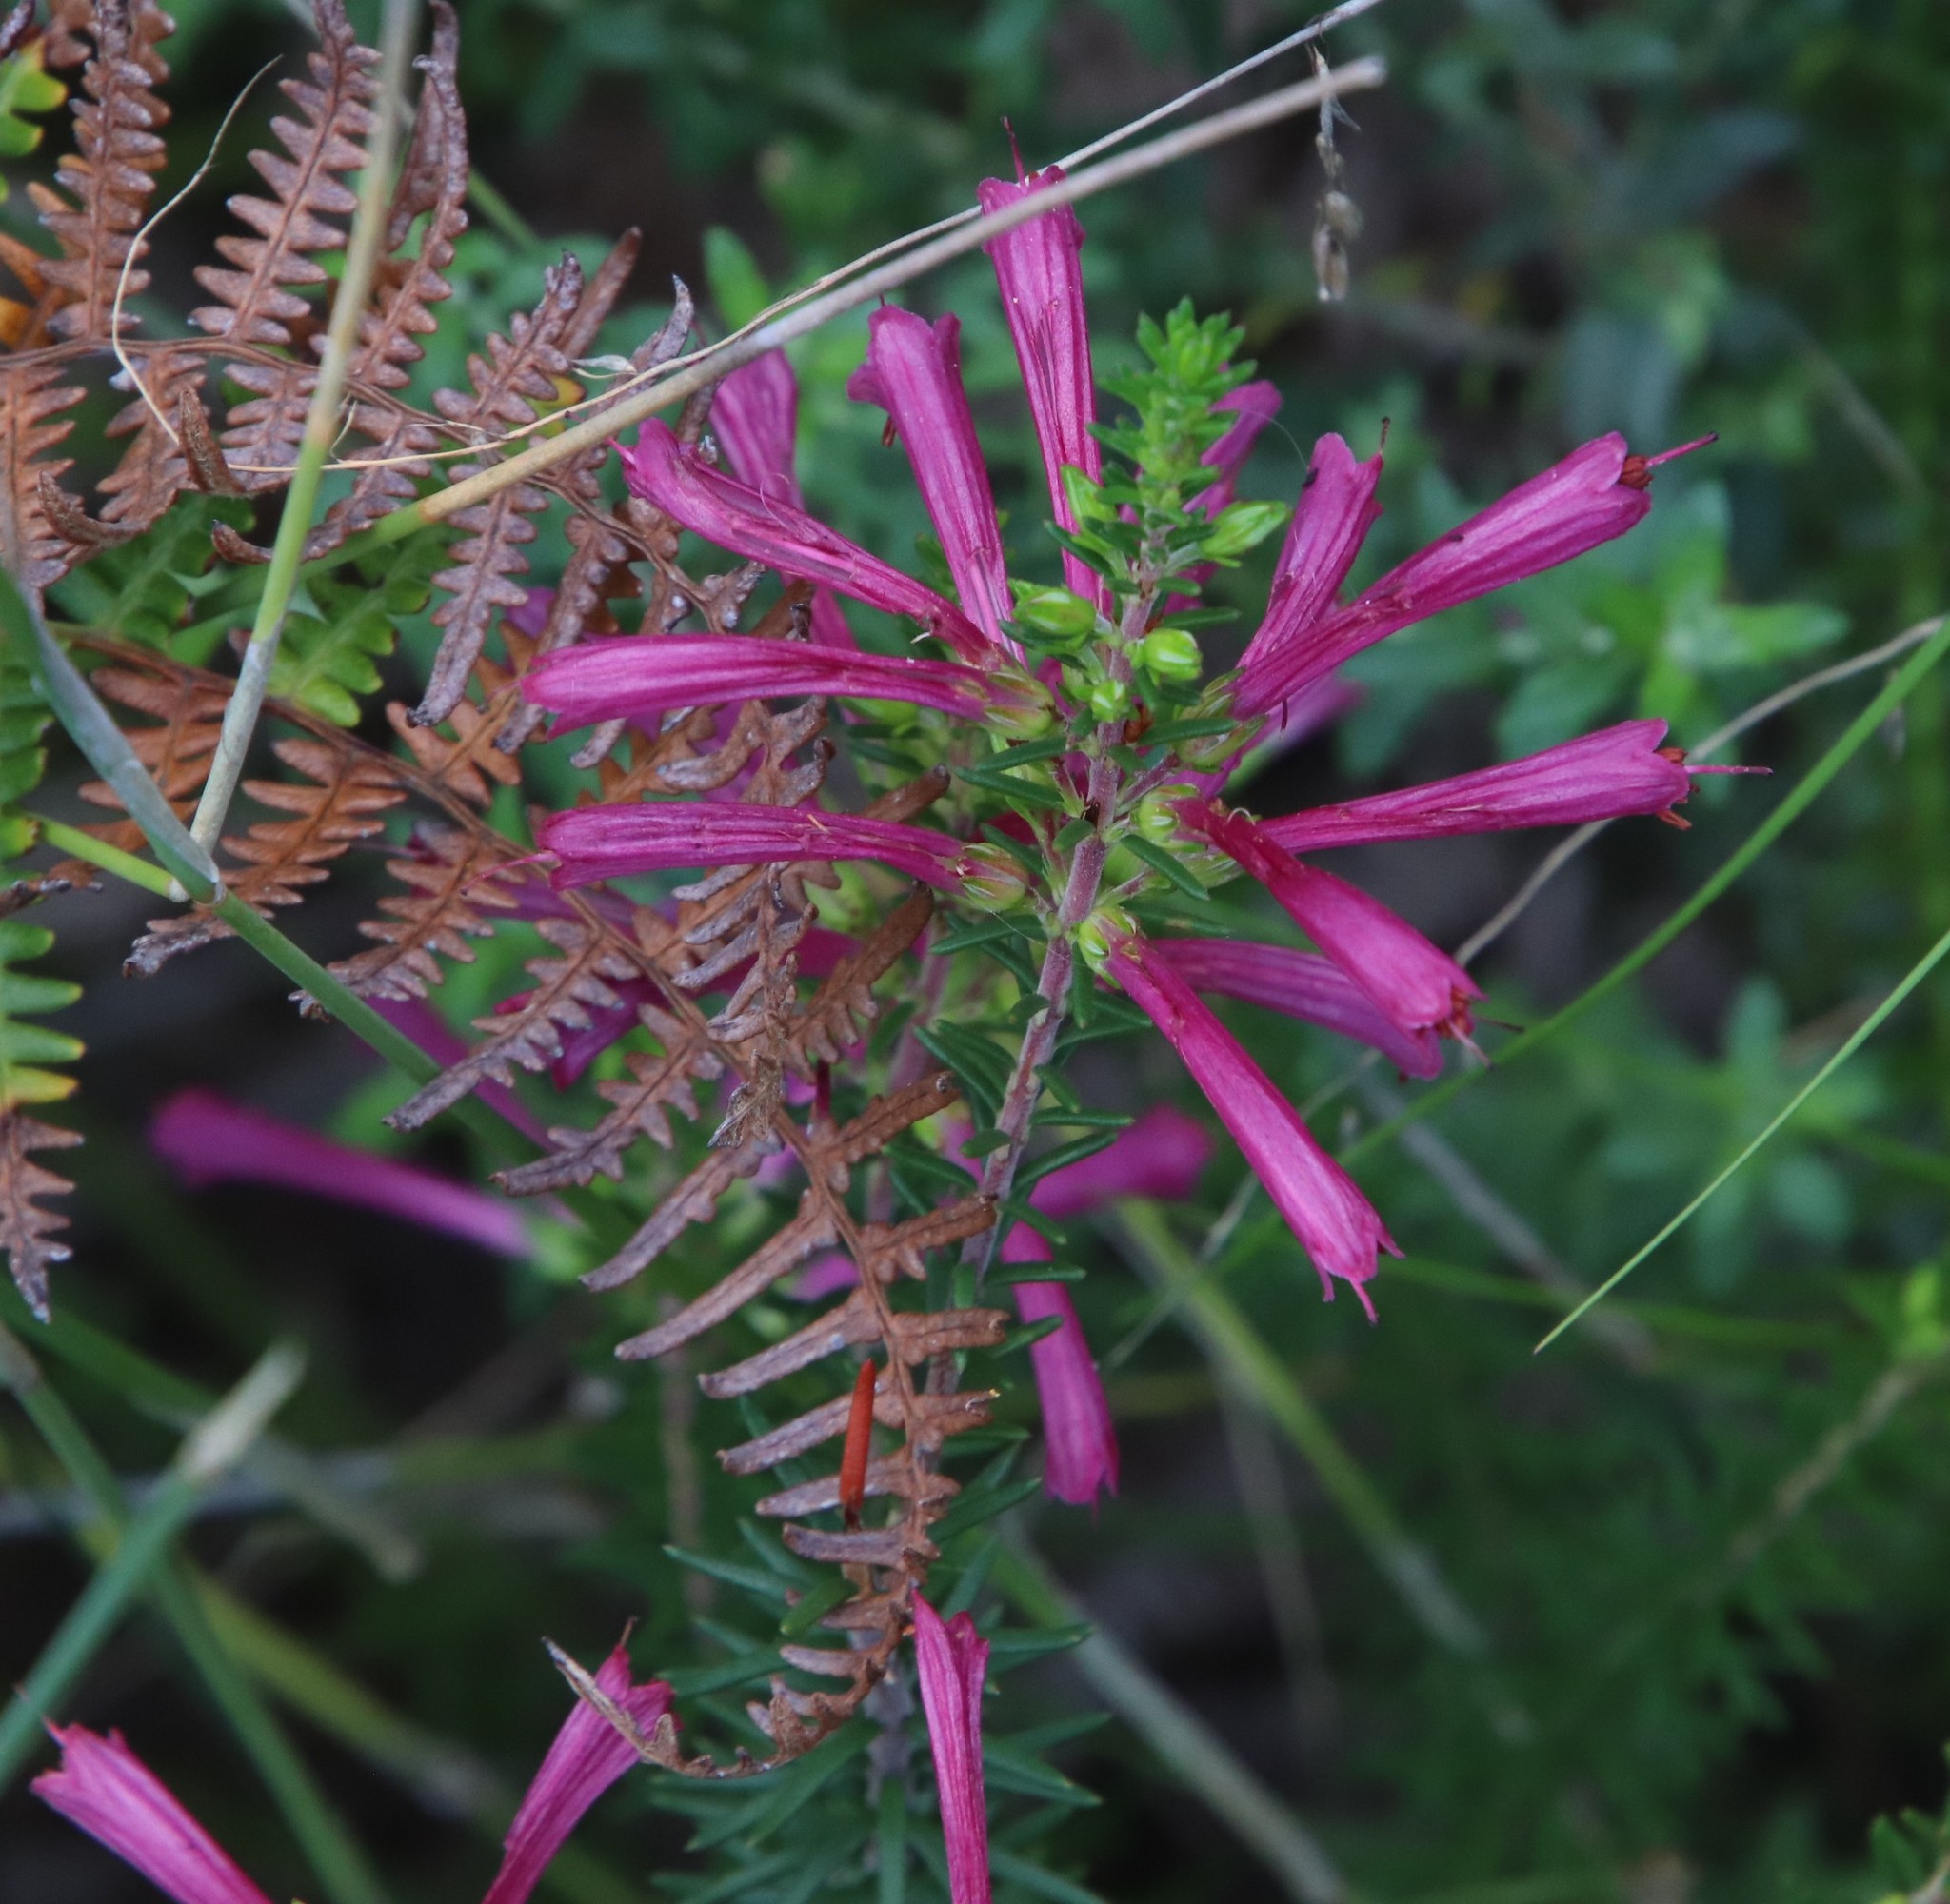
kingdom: Plantae
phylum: Tracheophyta
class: Magnoliopsida
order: Ericales
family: Ericaceae
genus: Erica
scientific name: Erica abietina
